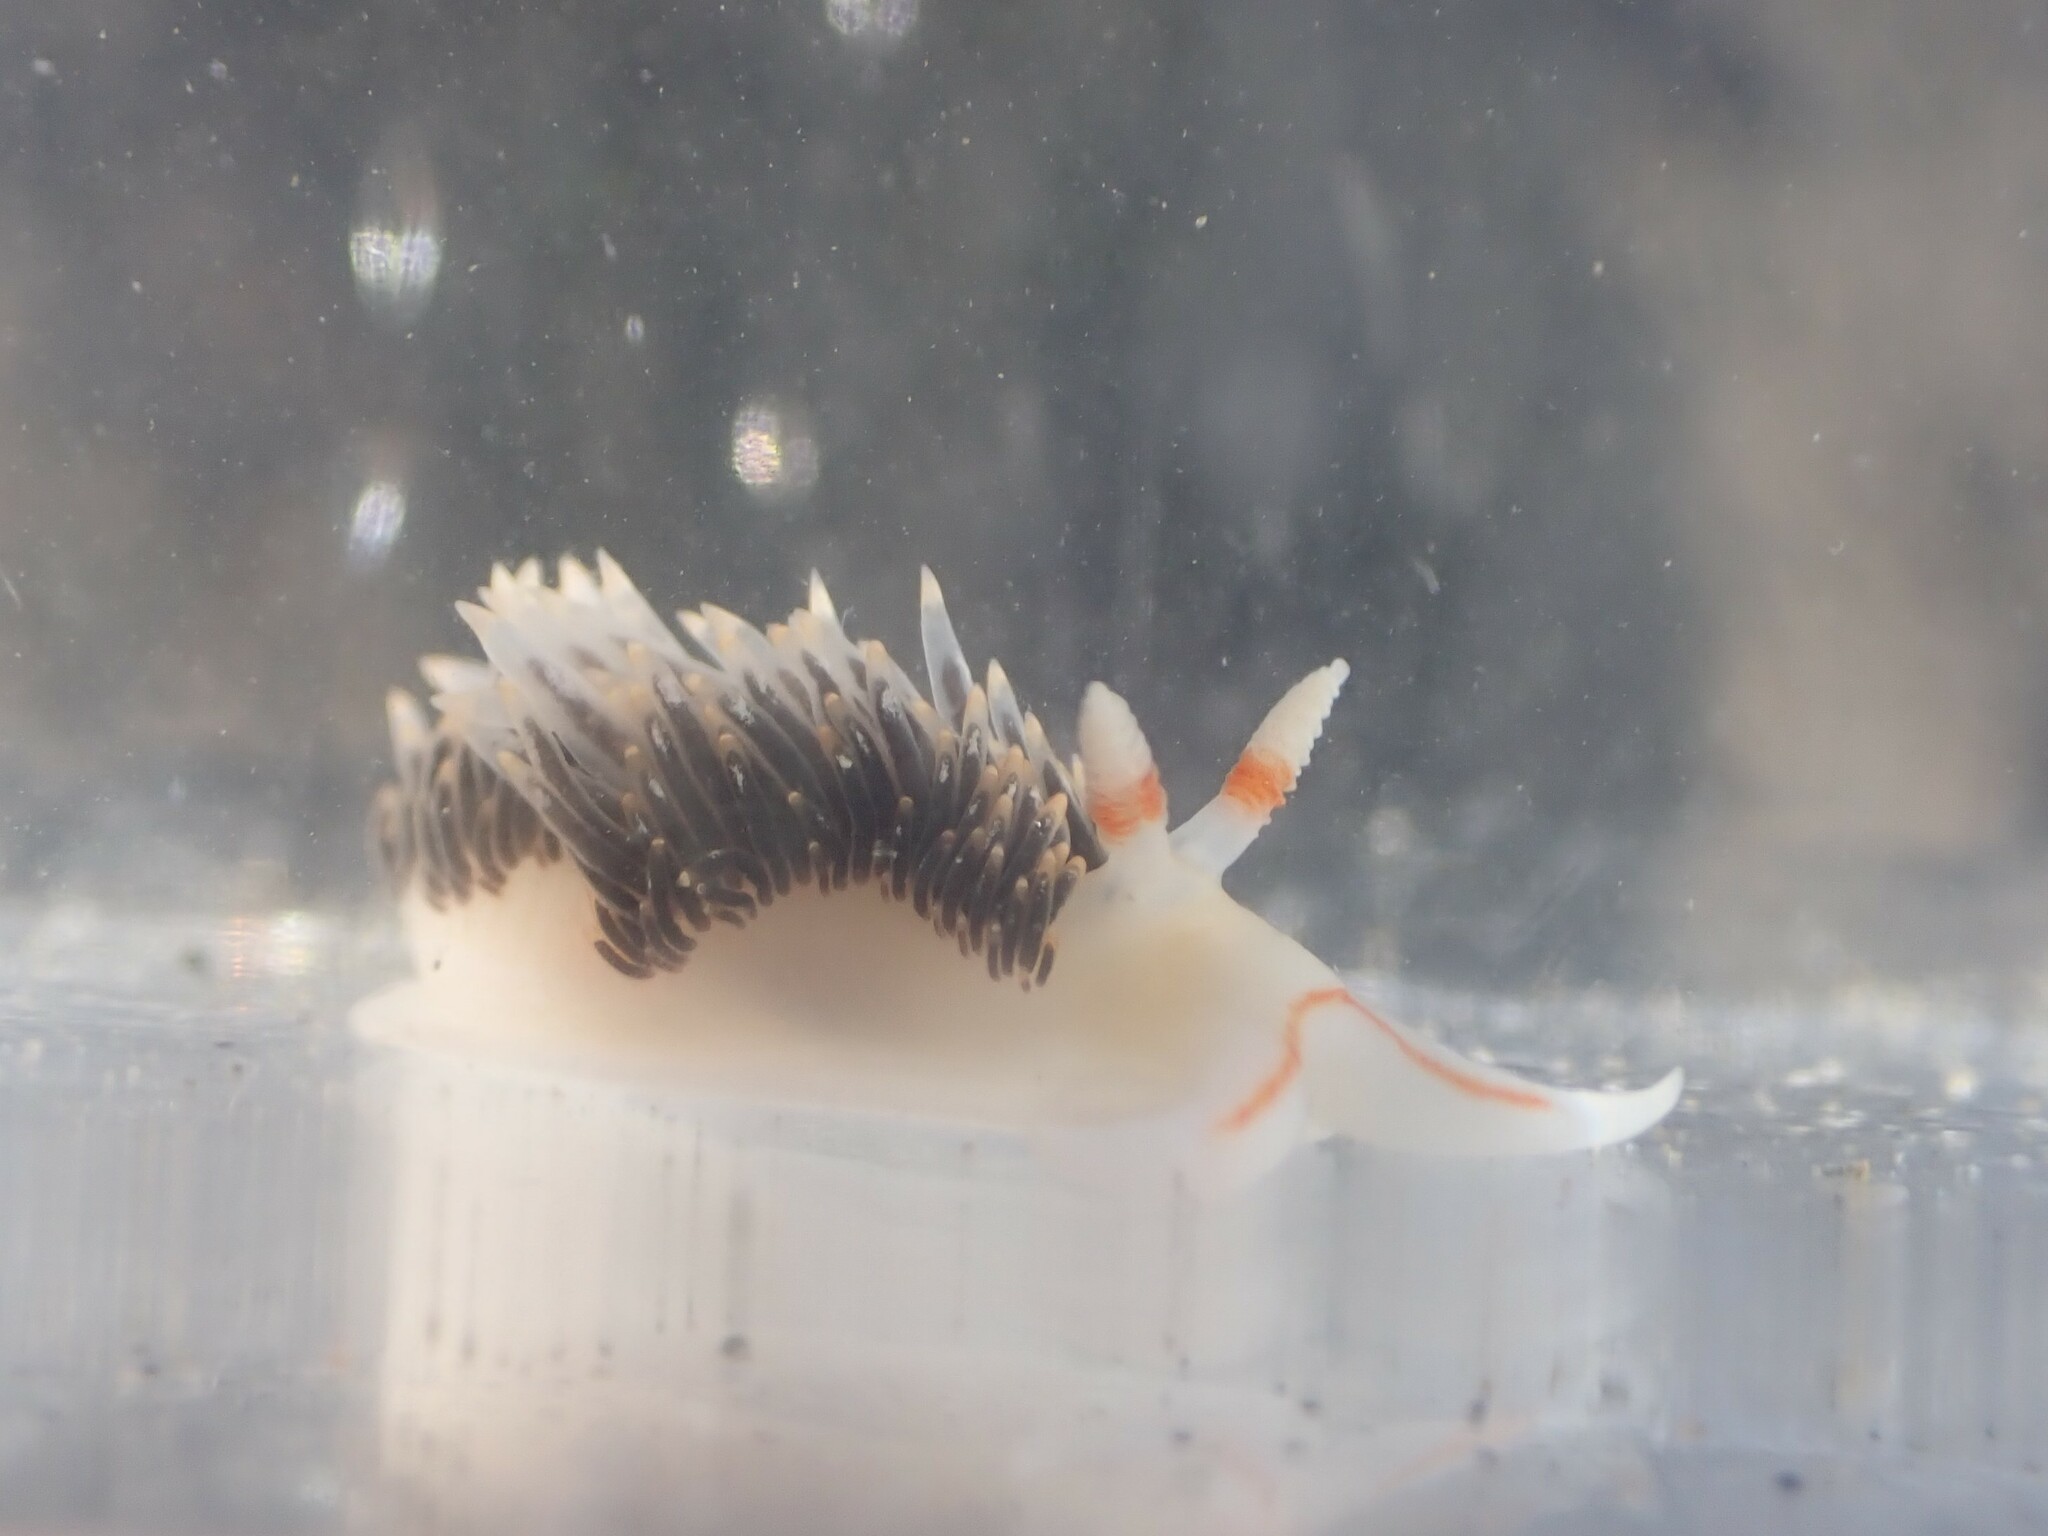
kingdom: Animalia
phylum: Mollusca
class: Gastropoda
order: Nudibranchia
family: Facelinidae
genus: Phidiana
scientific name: Phidiana hiltoni
